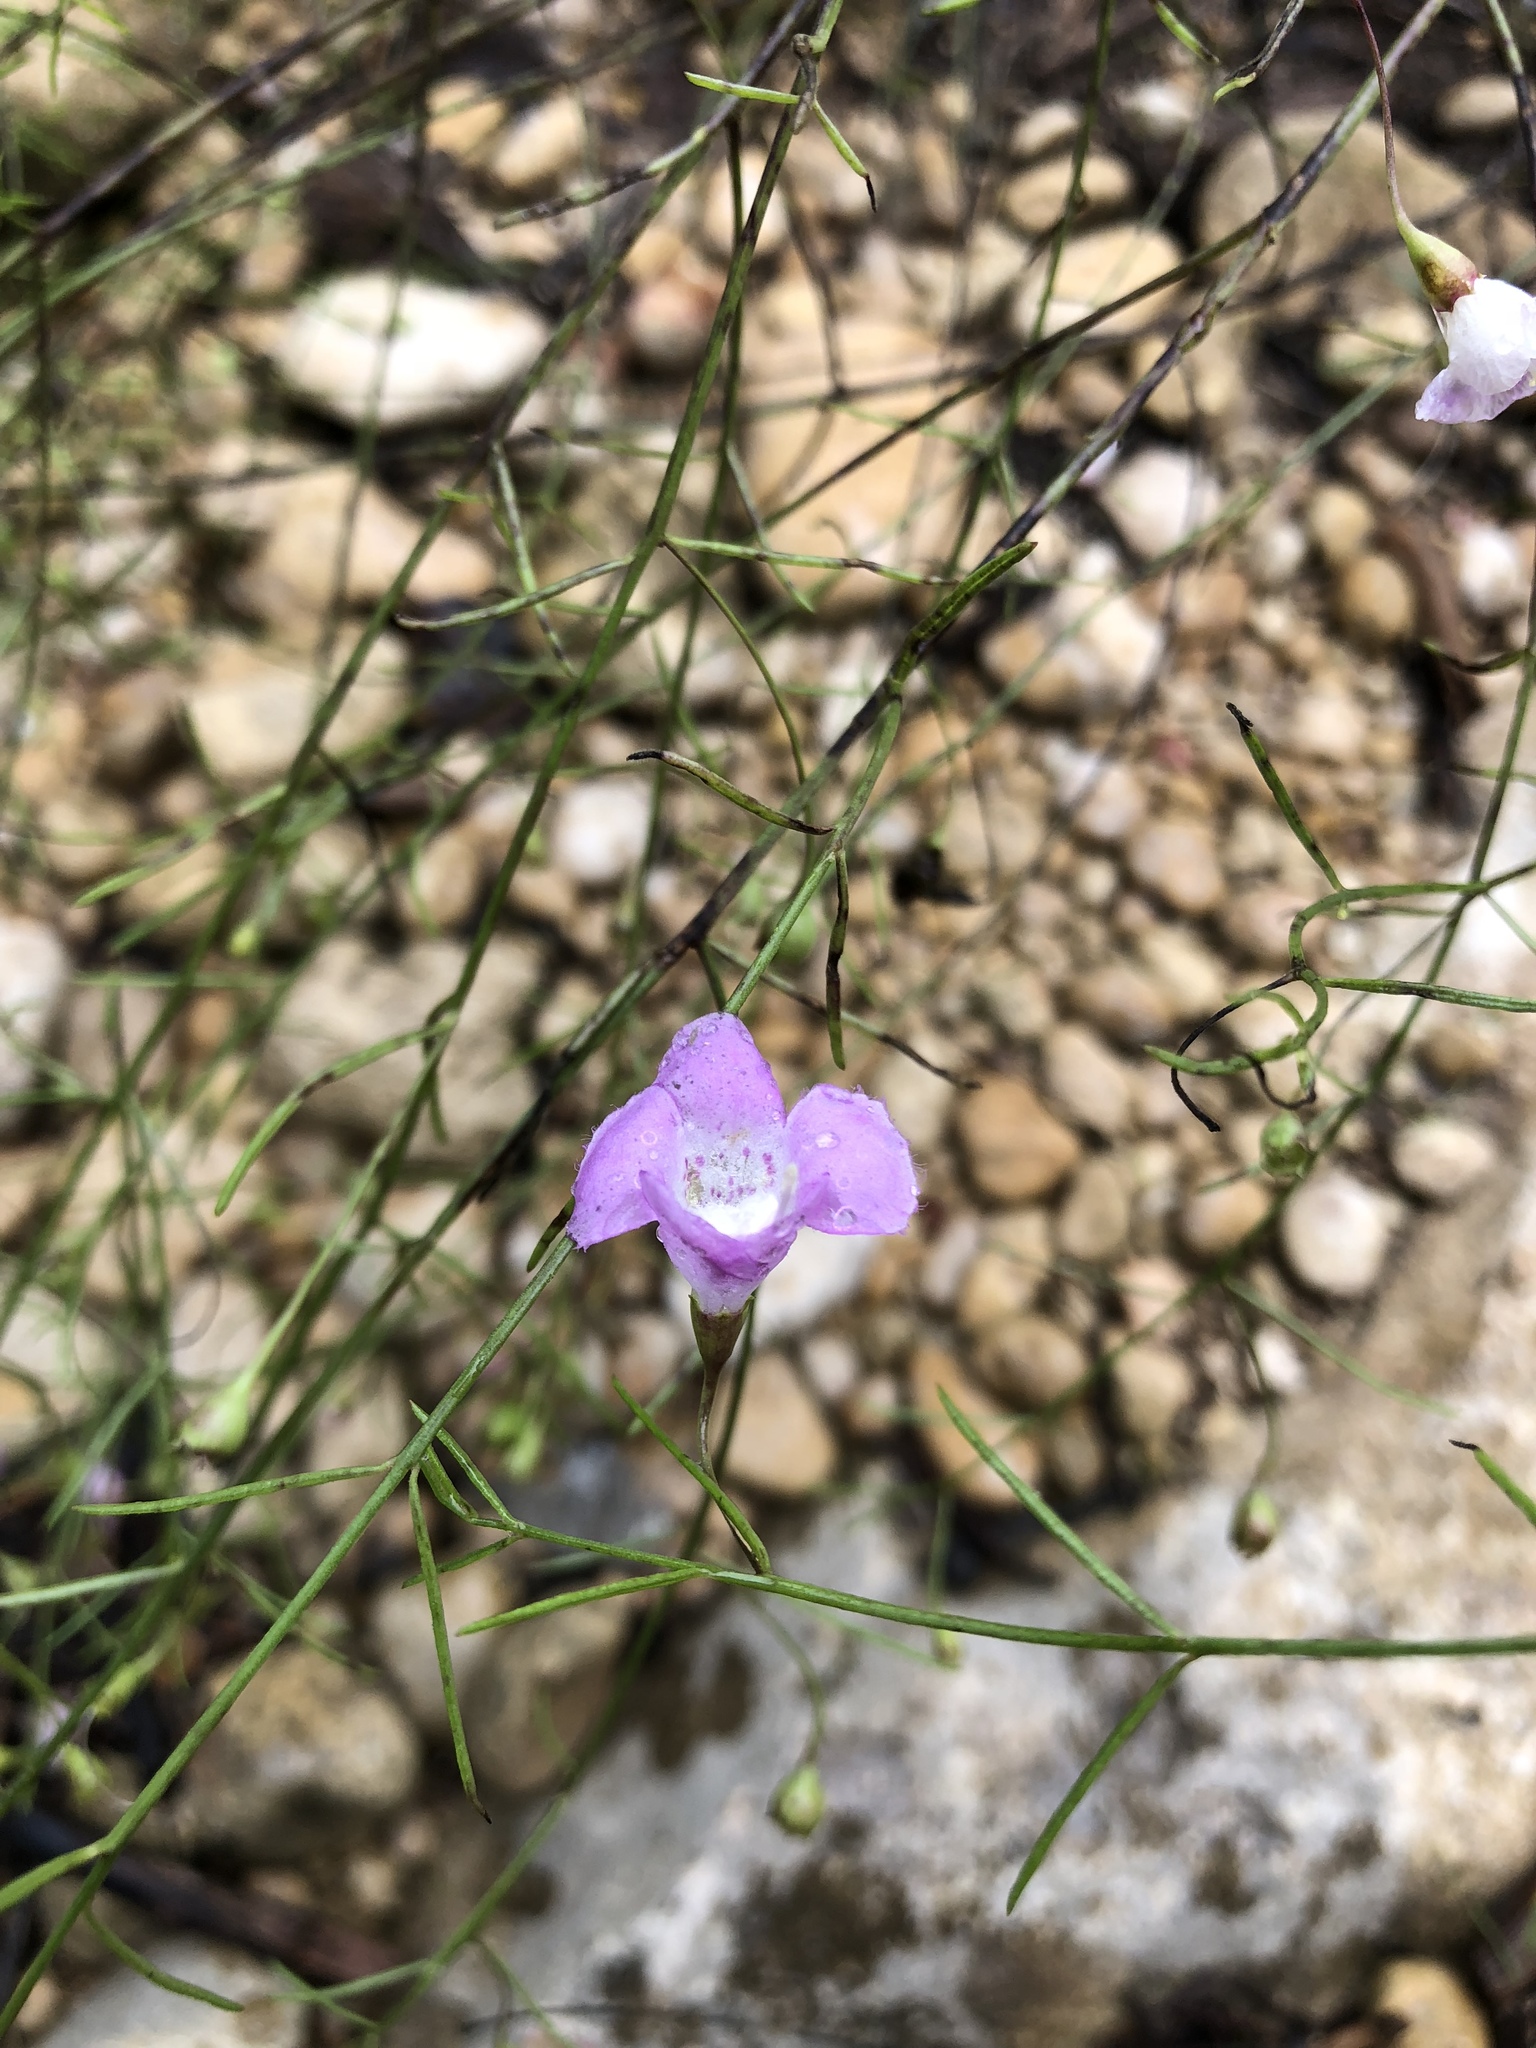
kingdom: Plantae
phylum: Tracheophyta
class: Magnoliopsida
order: Lamiales
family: Orobanchaceae
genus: Agalinis
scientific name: Agalinis edwardsiana
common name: Plateau-gerardia
